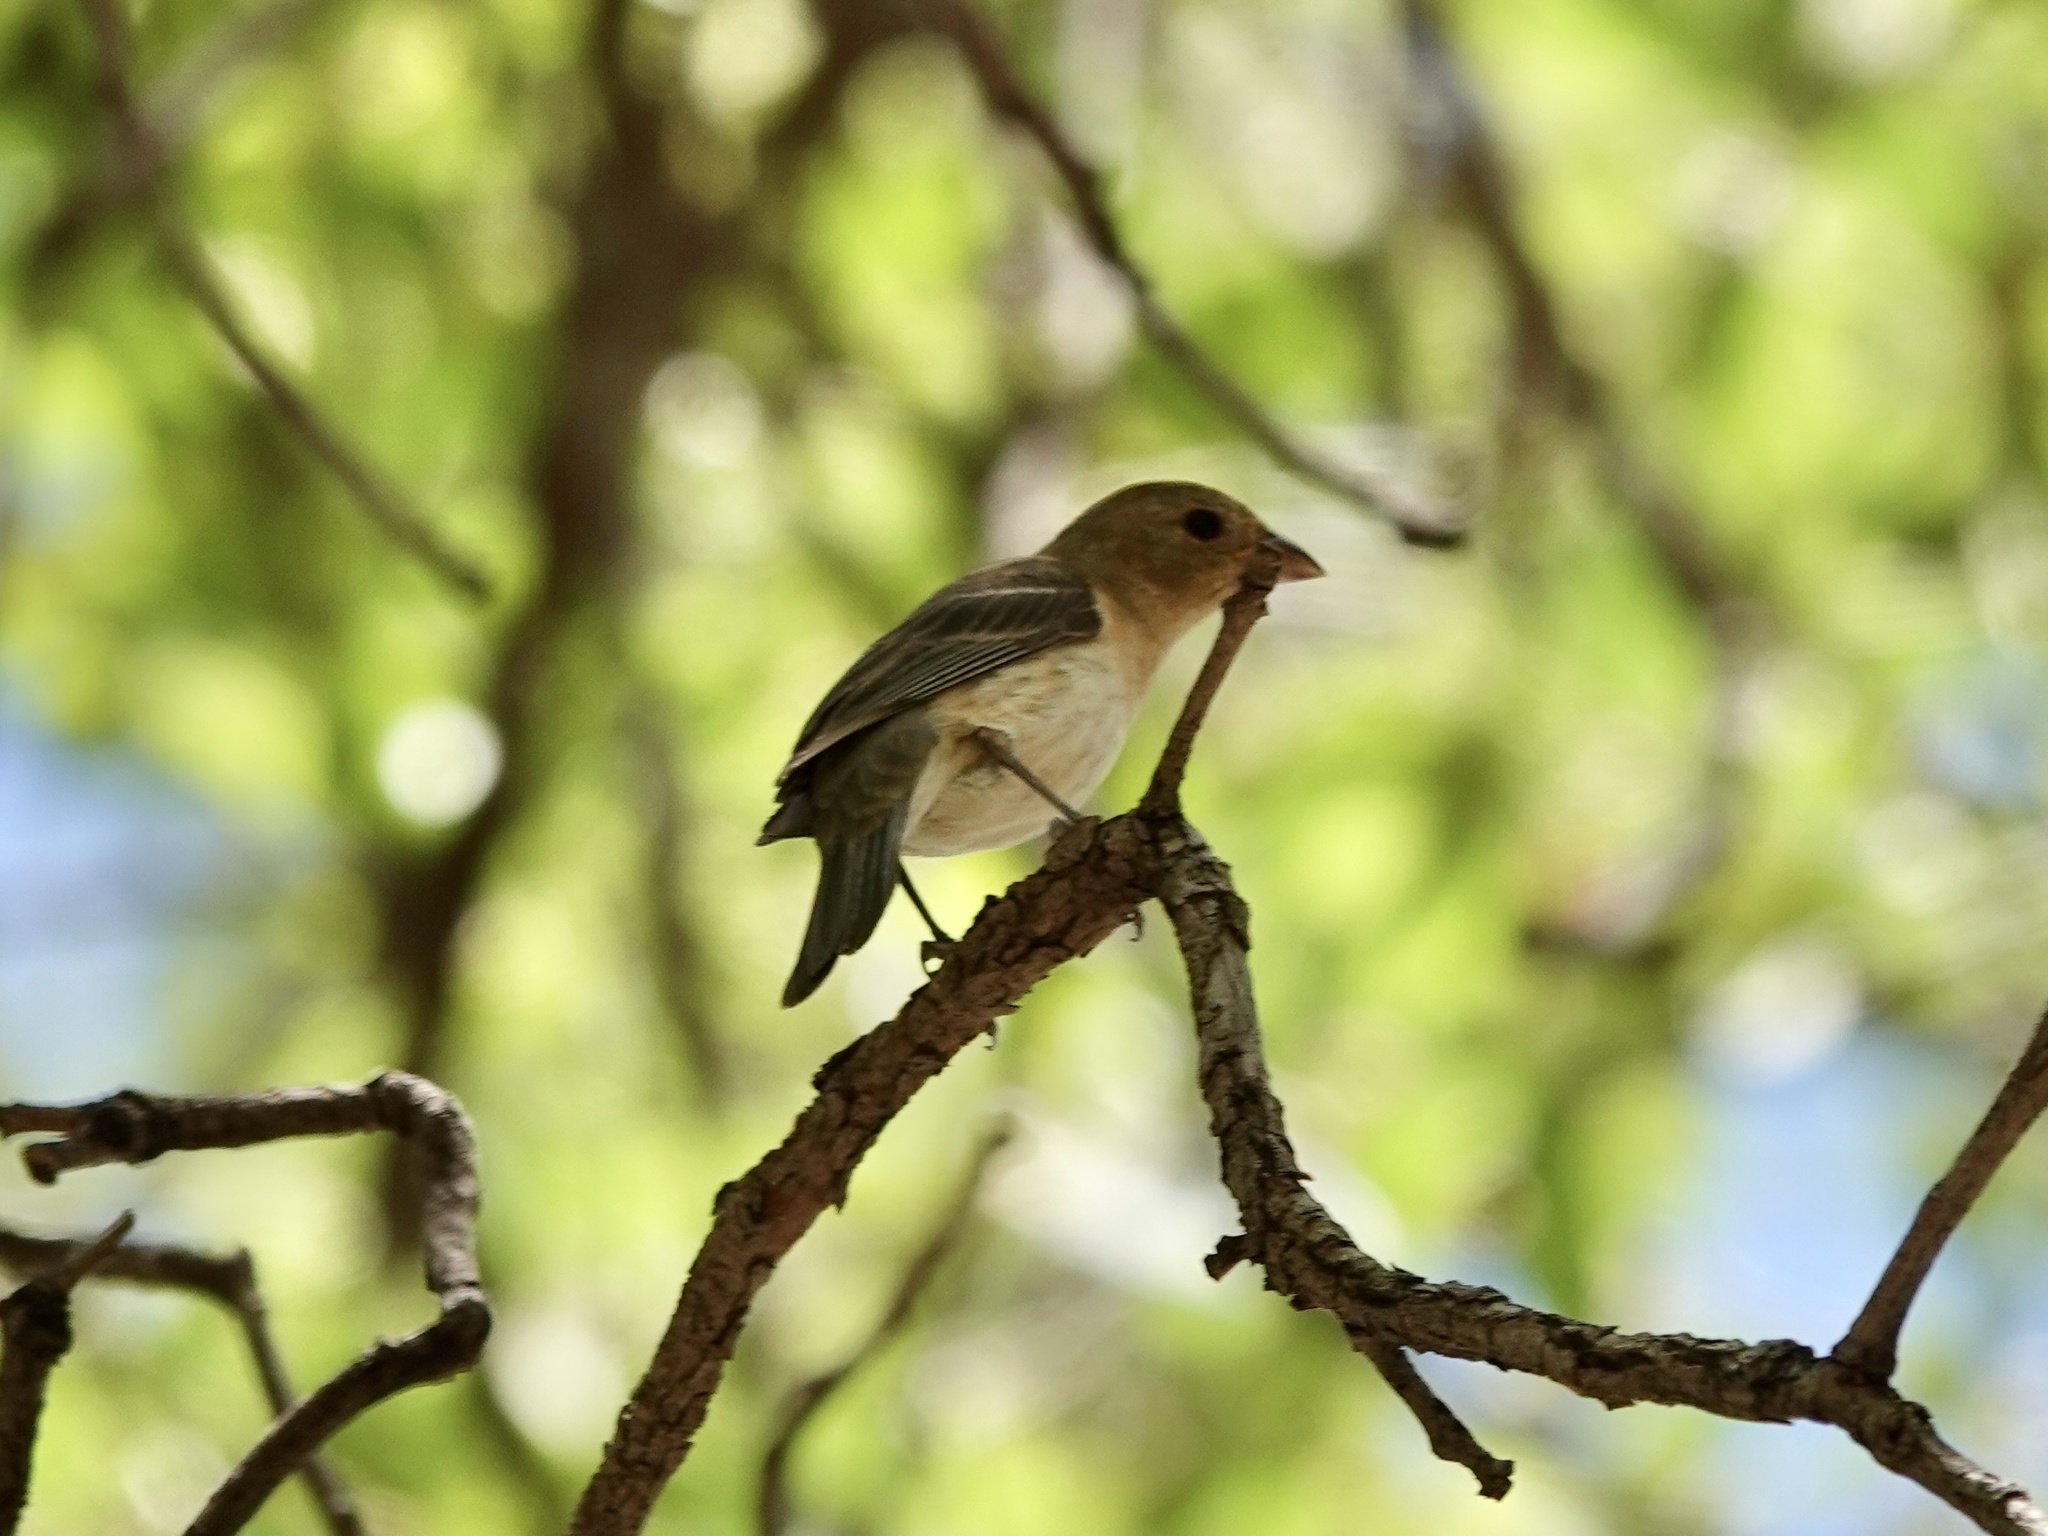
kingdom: Animalia
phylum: Chordata
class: Aves
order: Passeriformes
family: Cardinalidae
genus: Passerina
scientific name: Passerina amoena
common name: Lazuli bunting
